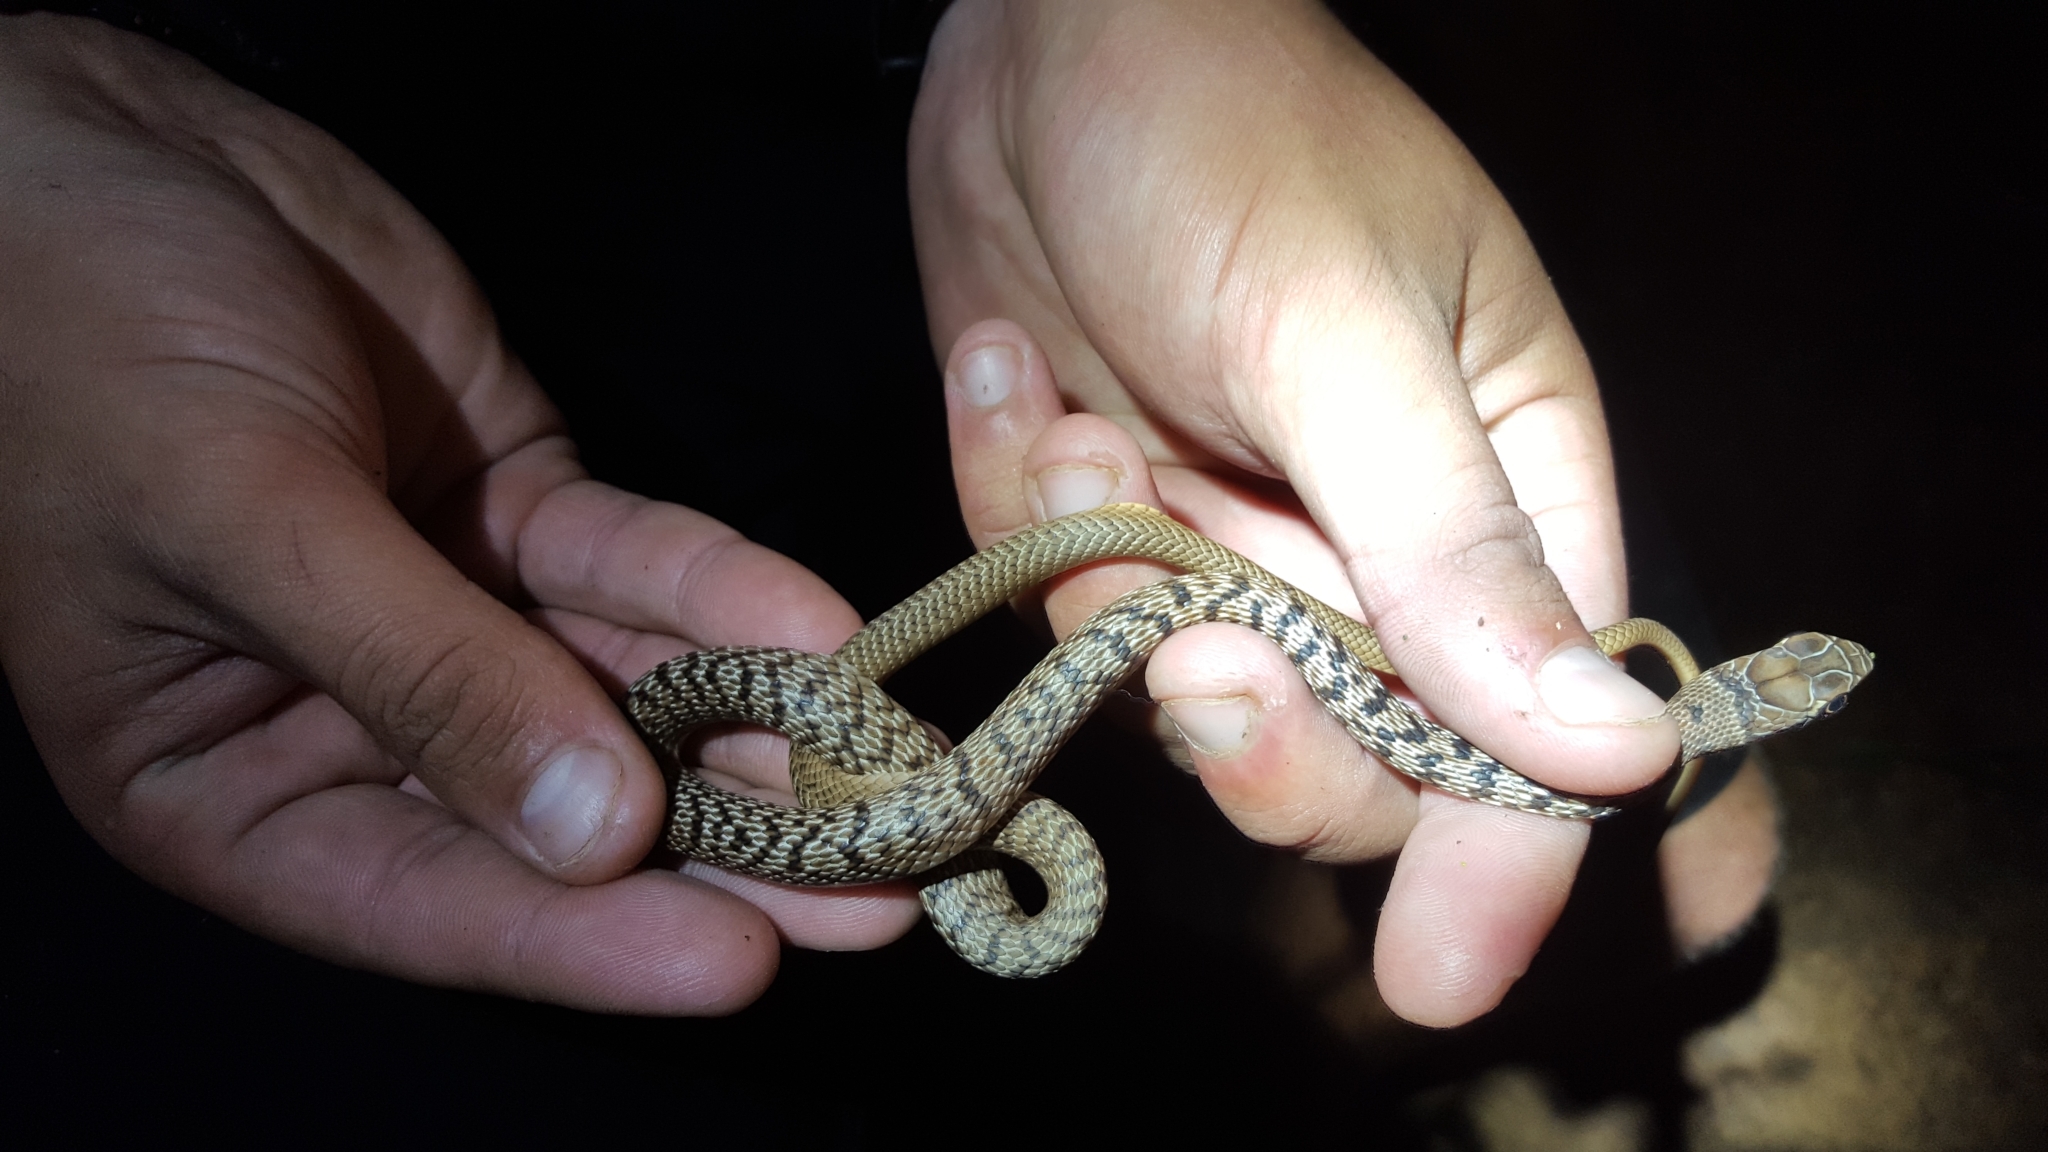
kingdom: Animalia
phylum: Chordata
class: Squamata
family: Colubridae
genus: Masticophis
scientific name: Masticophis flagellum
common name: Coachwhip
